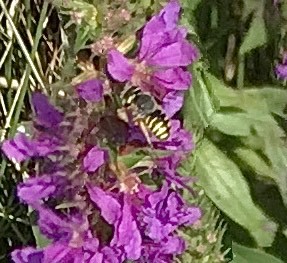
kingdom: Animalia
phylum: Arthropoda
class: Insecta
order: Hymenoptera
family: Megachilidae
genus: Anthidium
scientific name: Anthidium oblongatum
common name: Oblong wool carder bee
